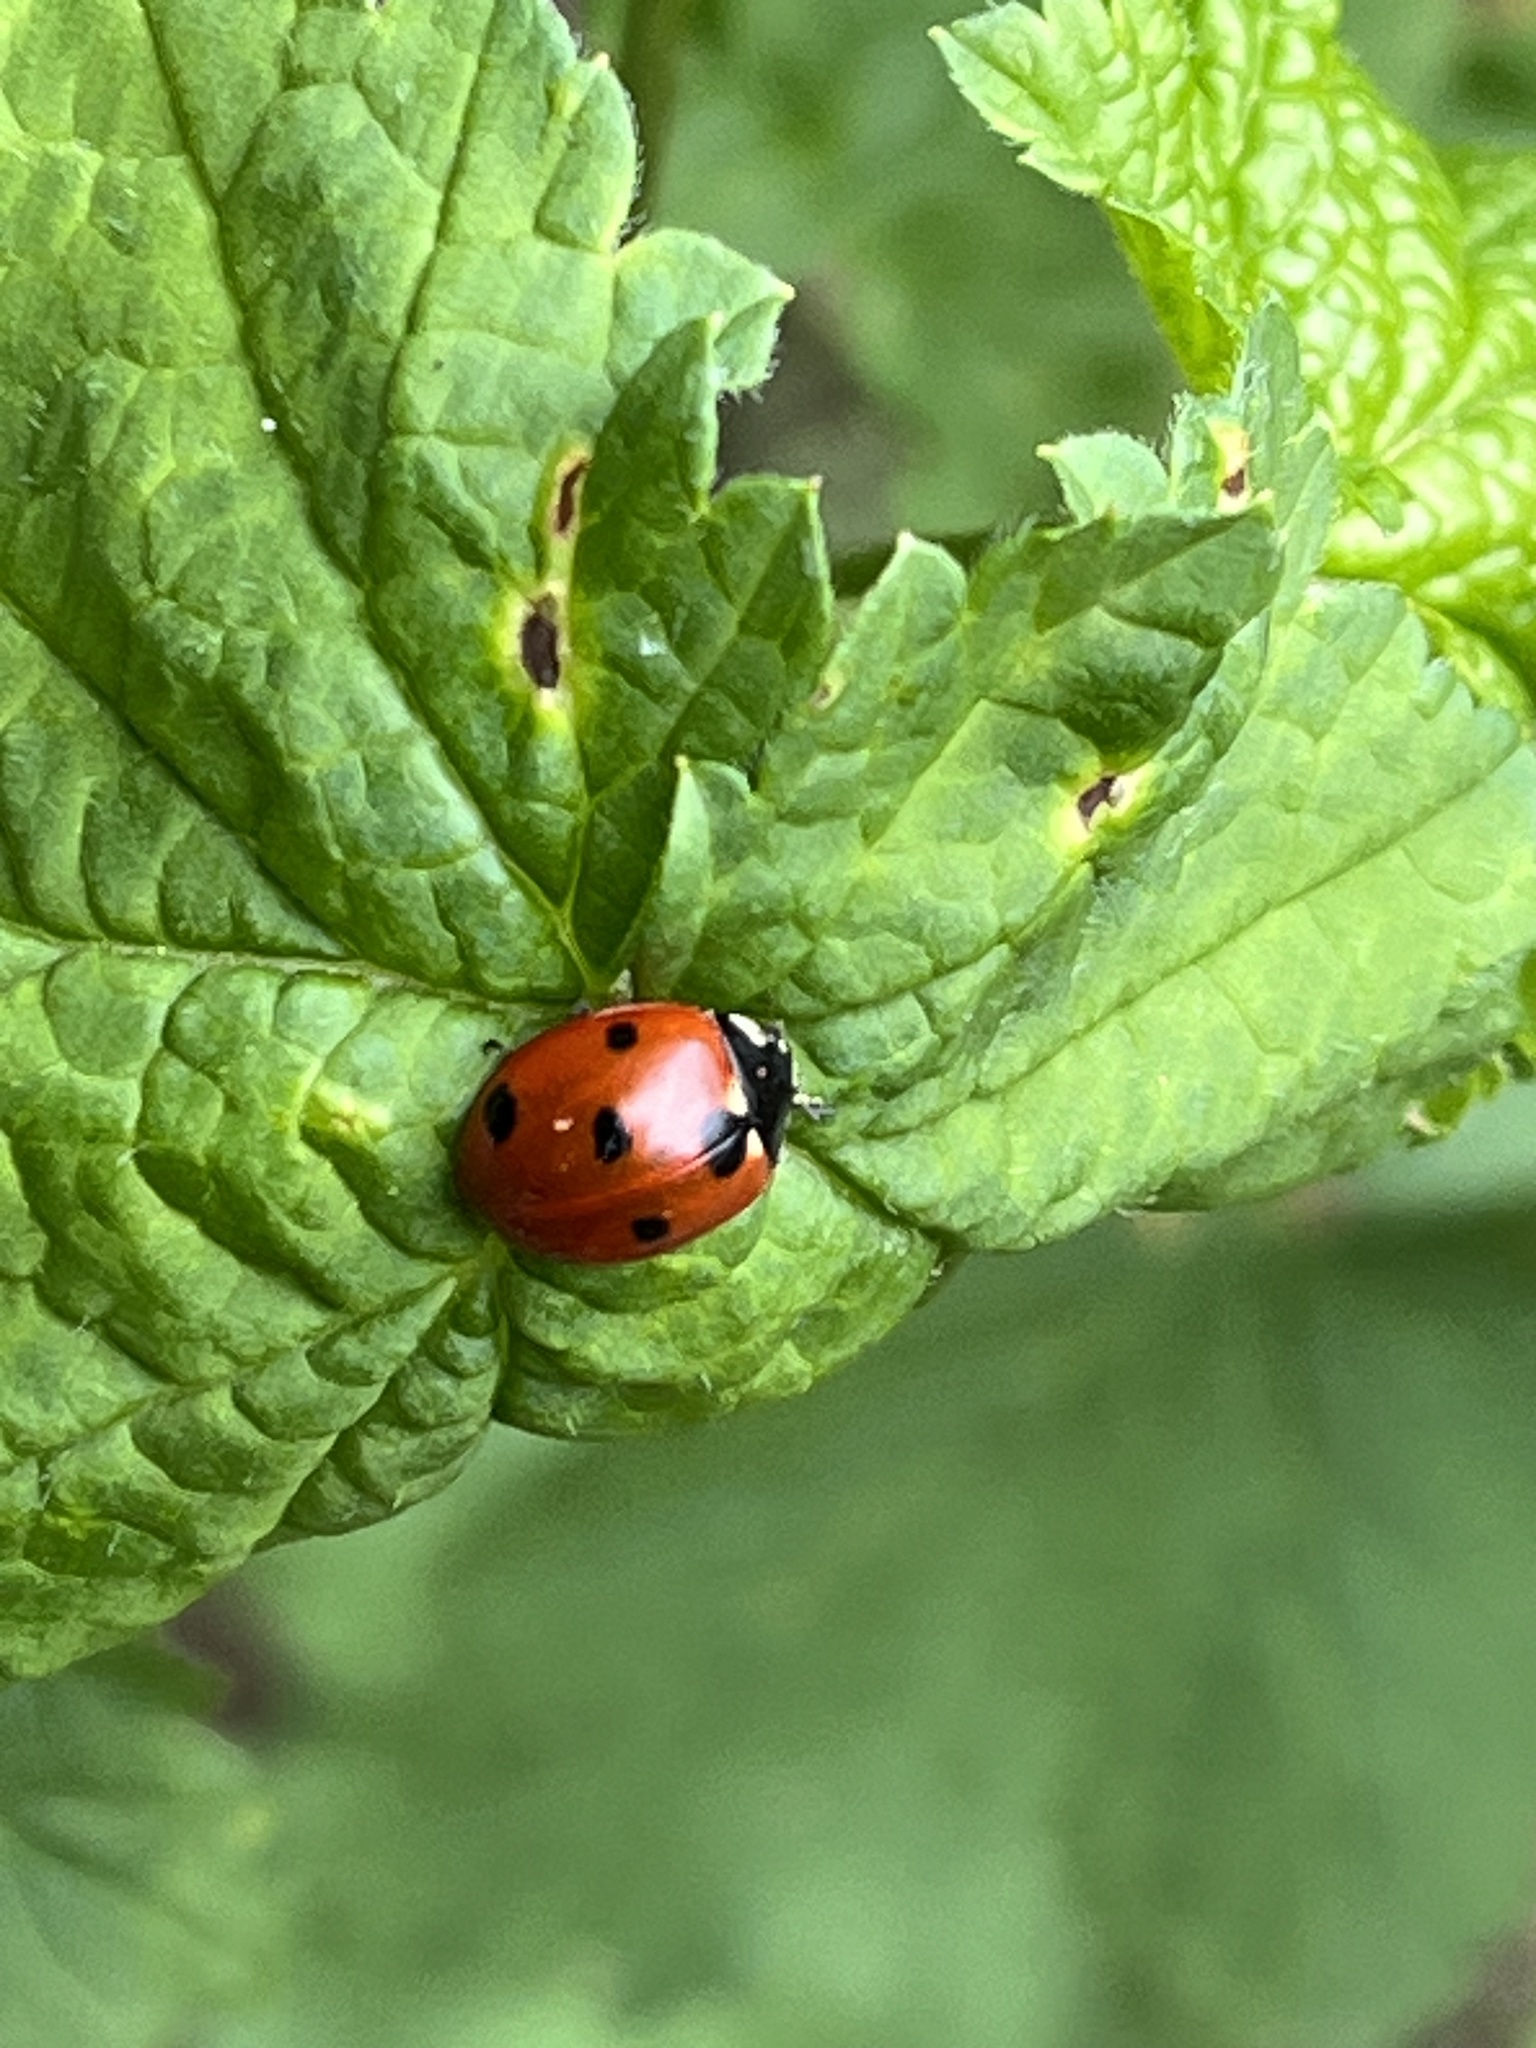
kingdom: Animalia
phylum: Arthropoda
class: Insecta
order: Coleoptera
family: Coccinellidae
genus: Coccinella
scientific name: Coccinella septempunctata
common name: Sevenspotted lady beetle
